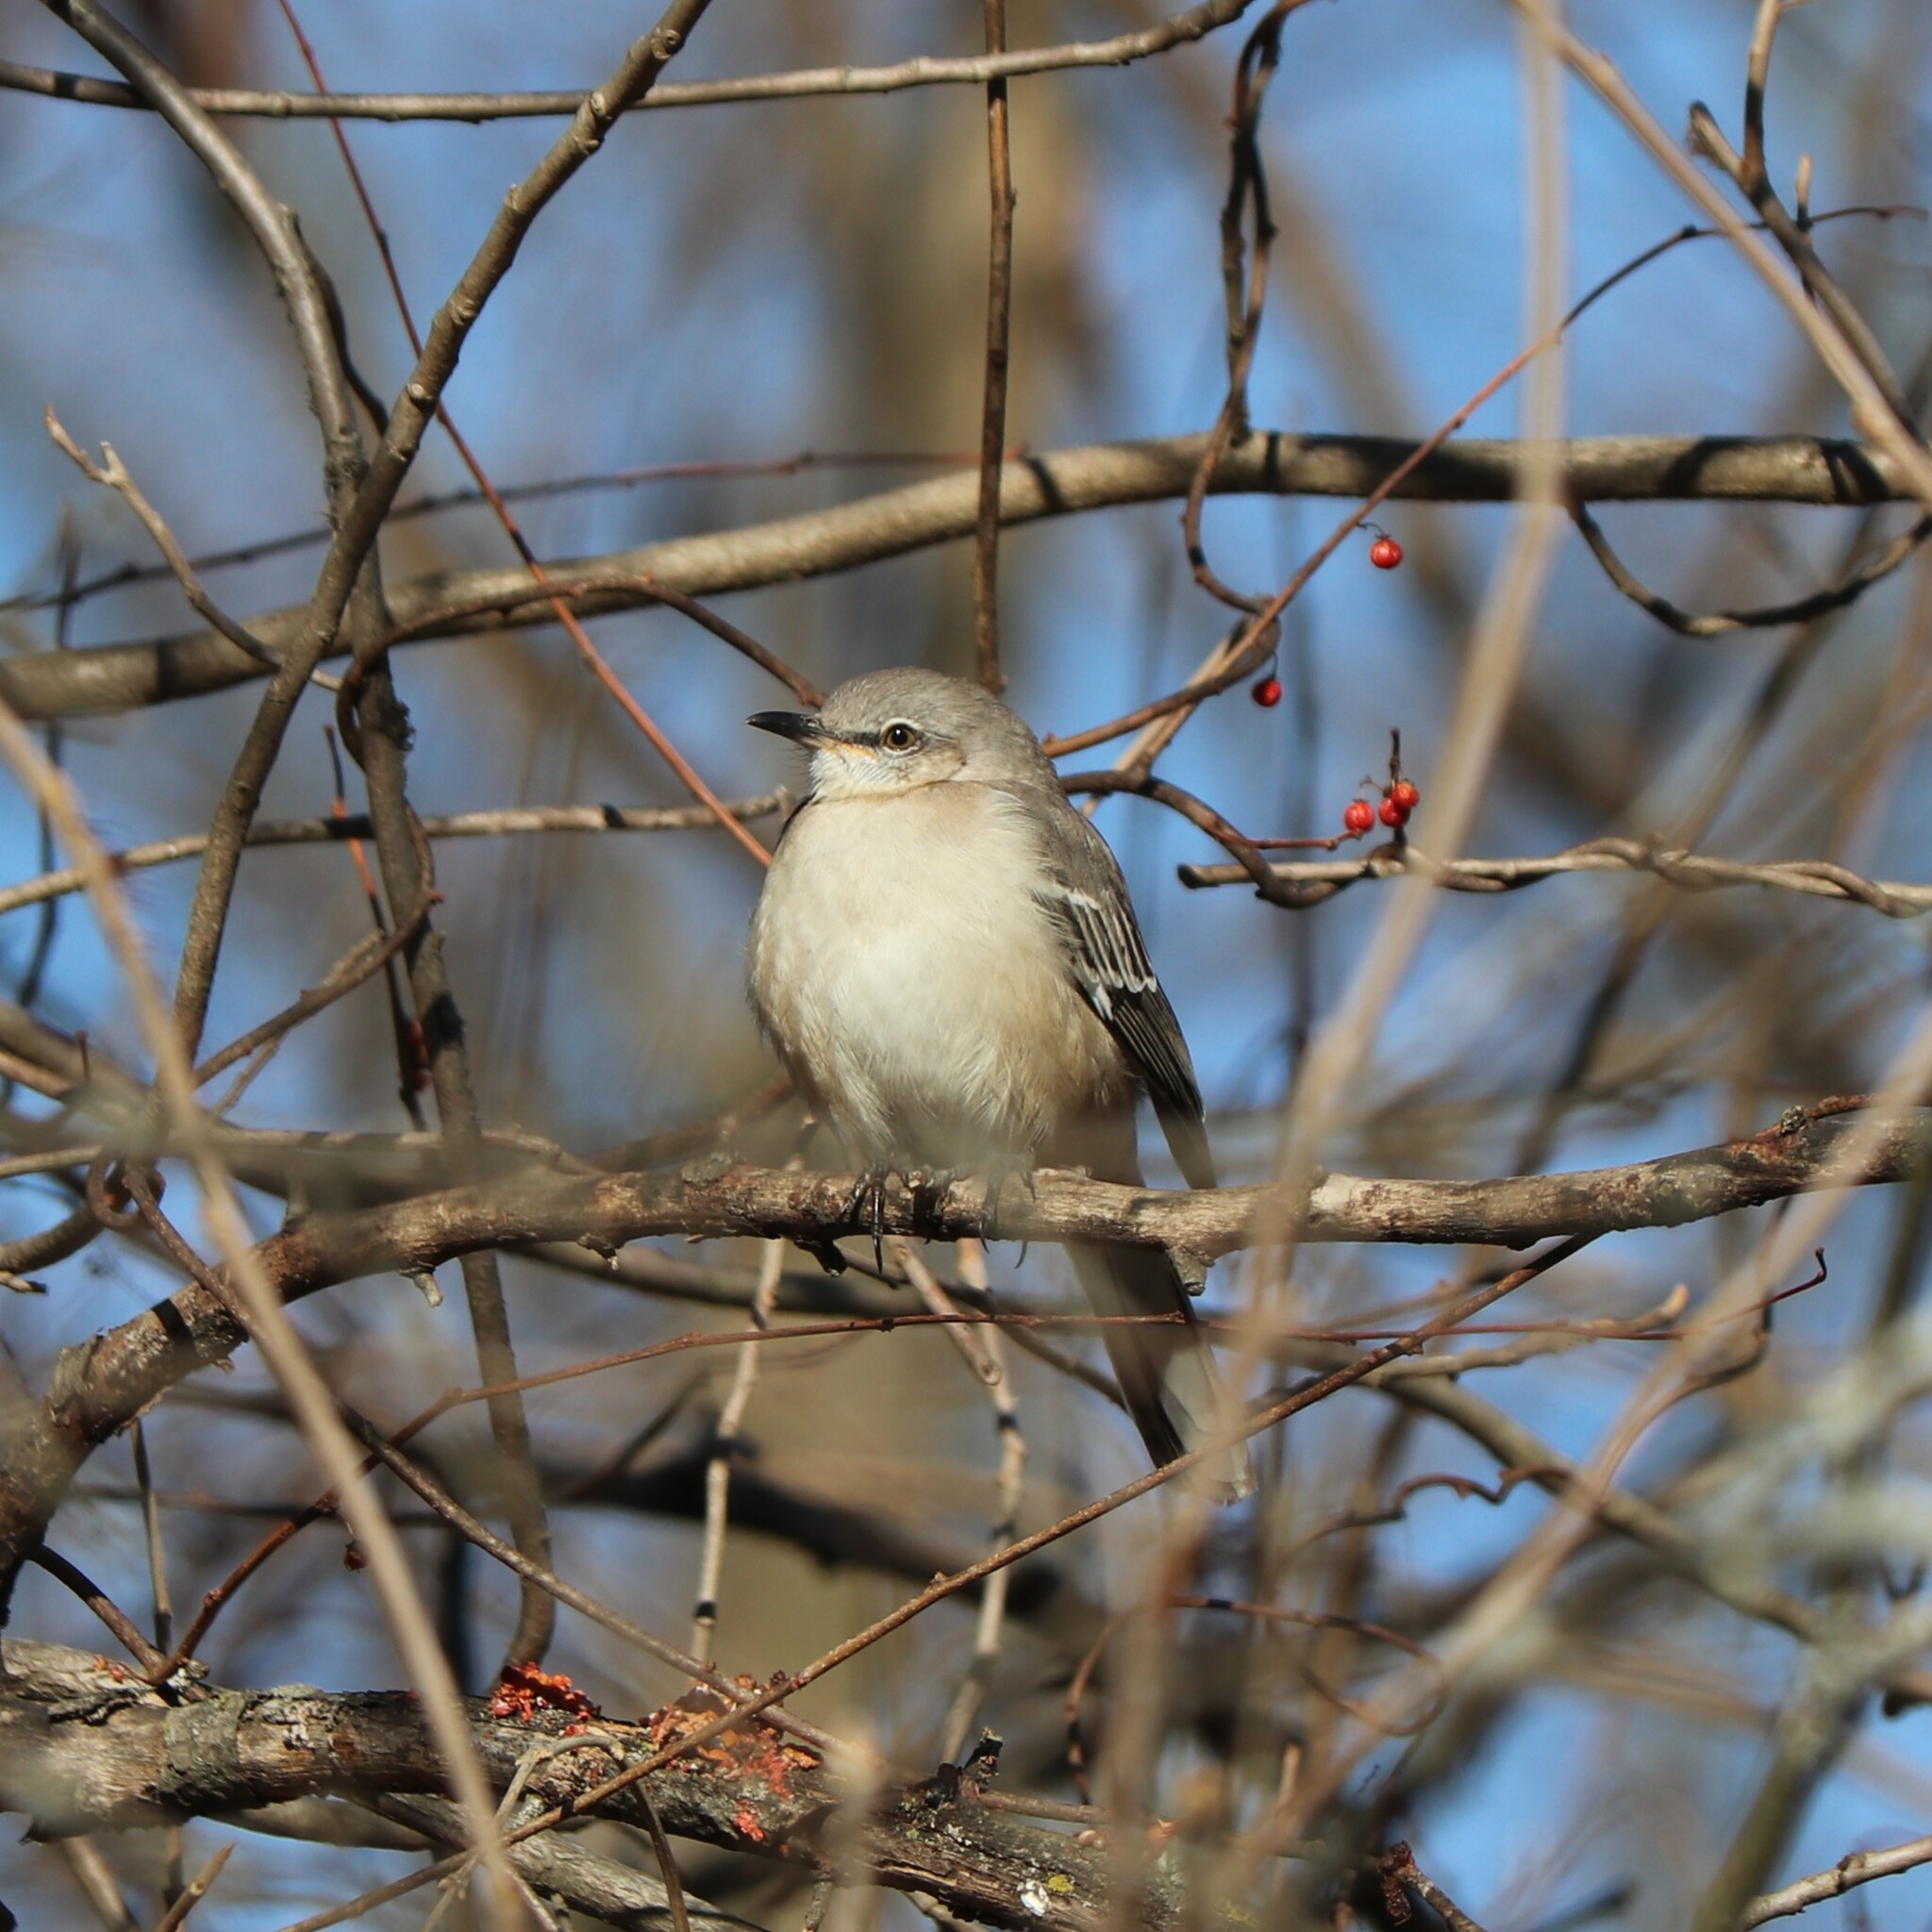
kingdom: Animalia
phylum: Chordata
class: Aves
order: Passeriformes
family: Mimidae
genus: Mimus
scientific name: Mimus polyglottos
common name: Northern mockingbird
